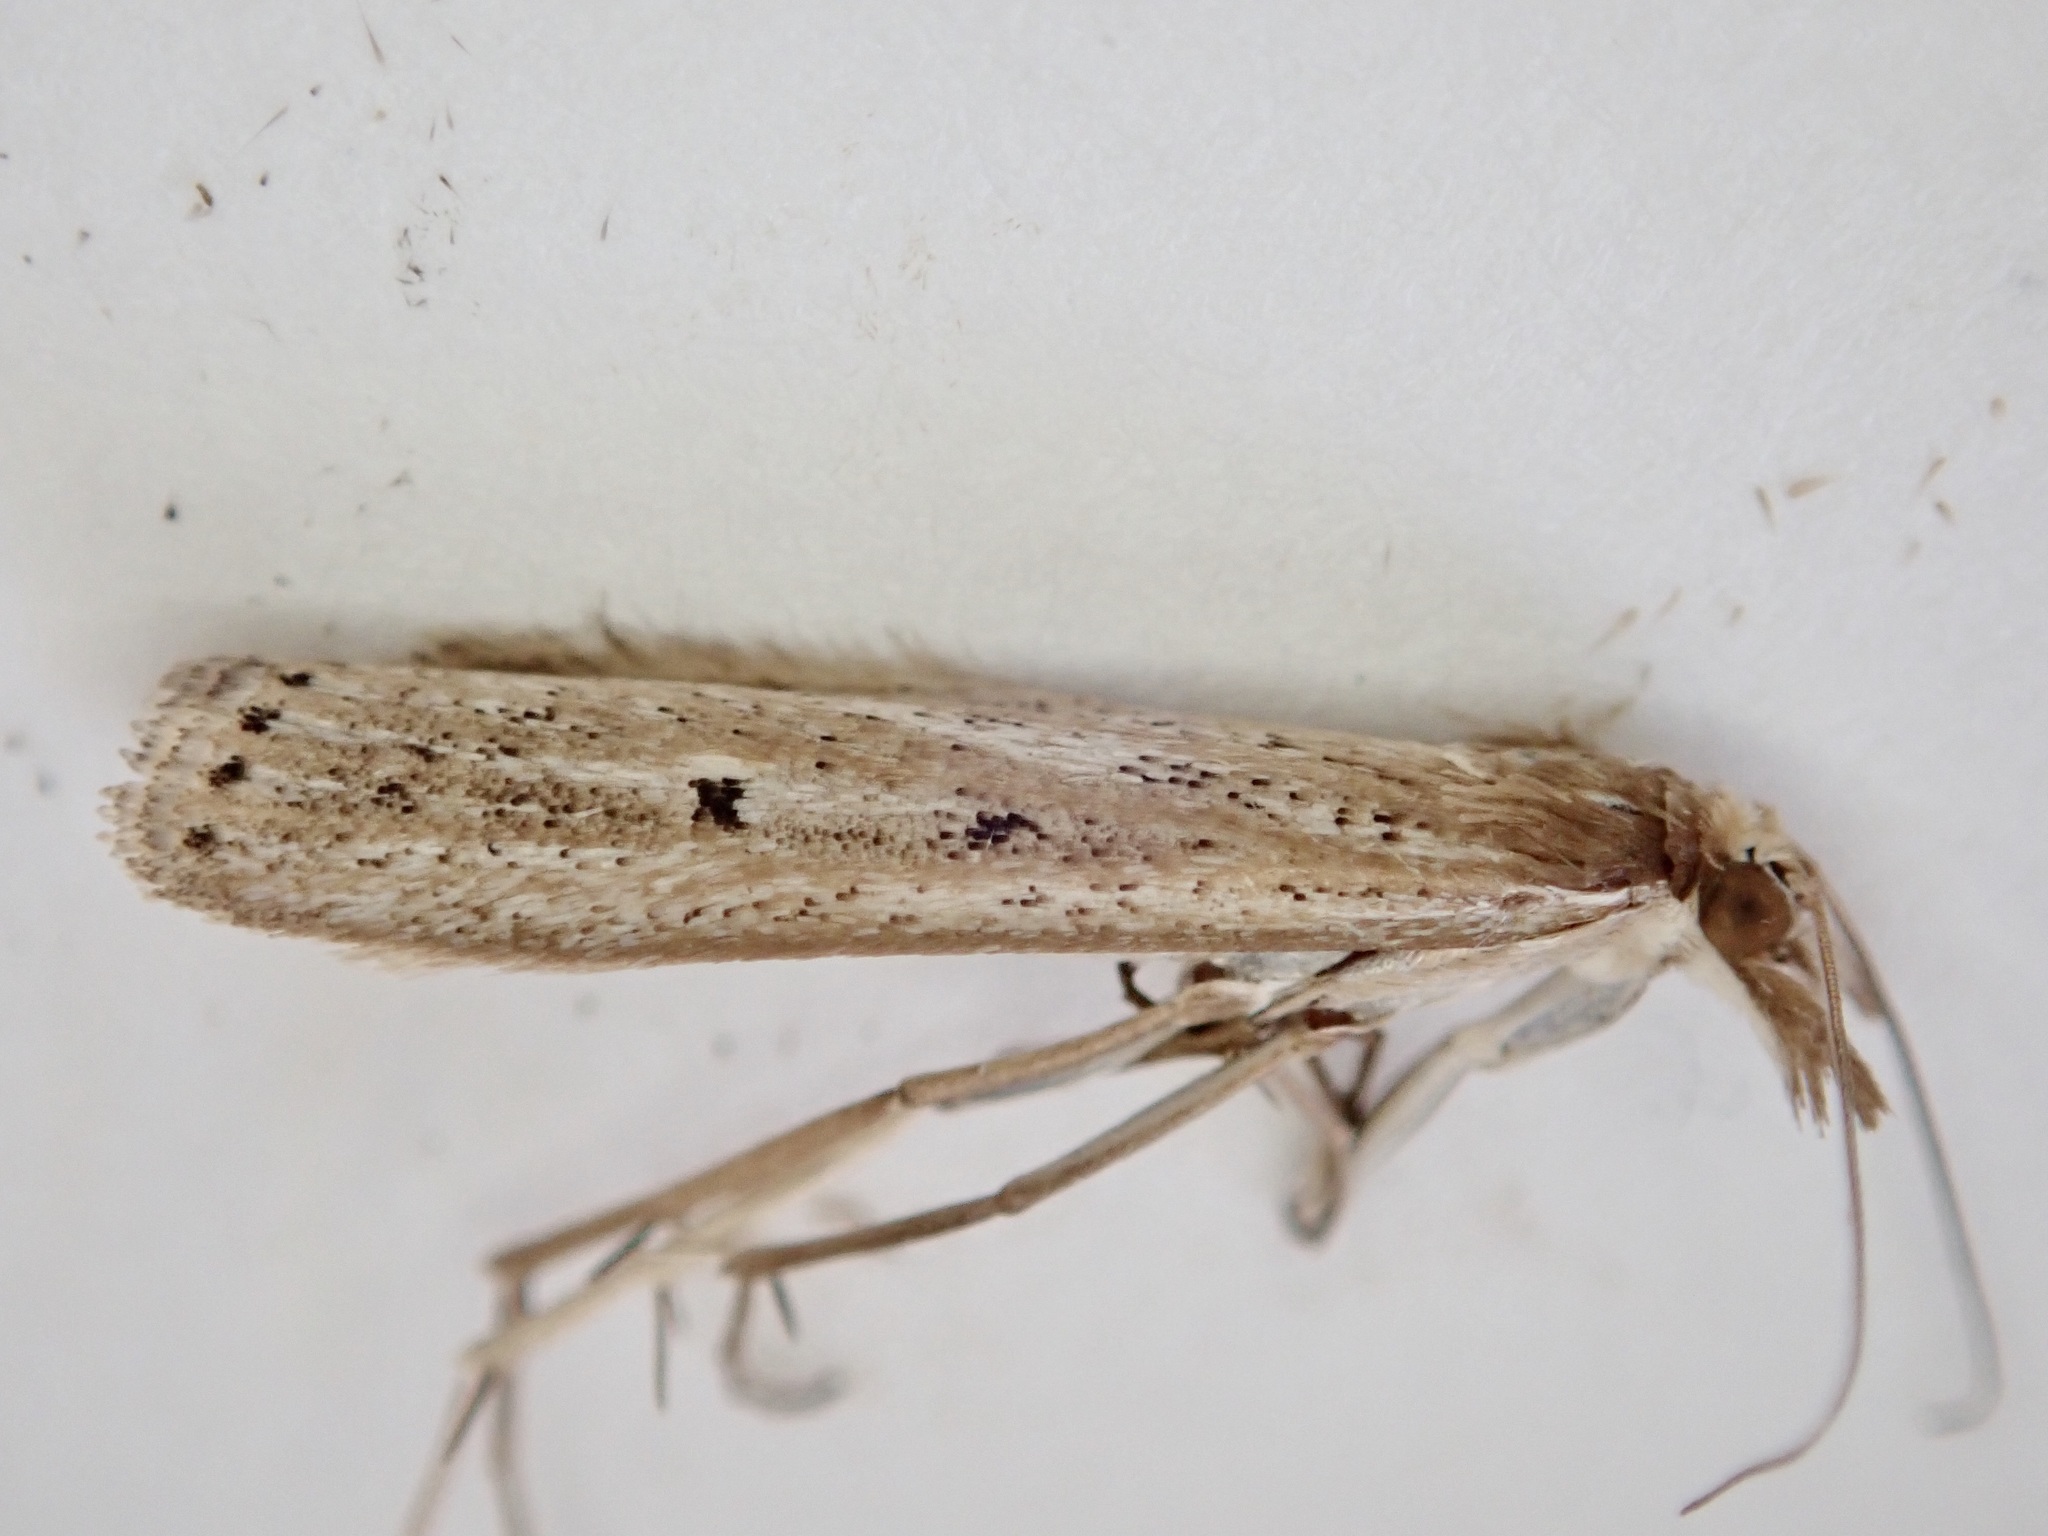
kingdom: Animalia
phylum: Arthropoda
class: Insecta
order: Lepidoptera
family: Crambidae
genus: Eudonia
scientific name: Eudonia sabulosella
